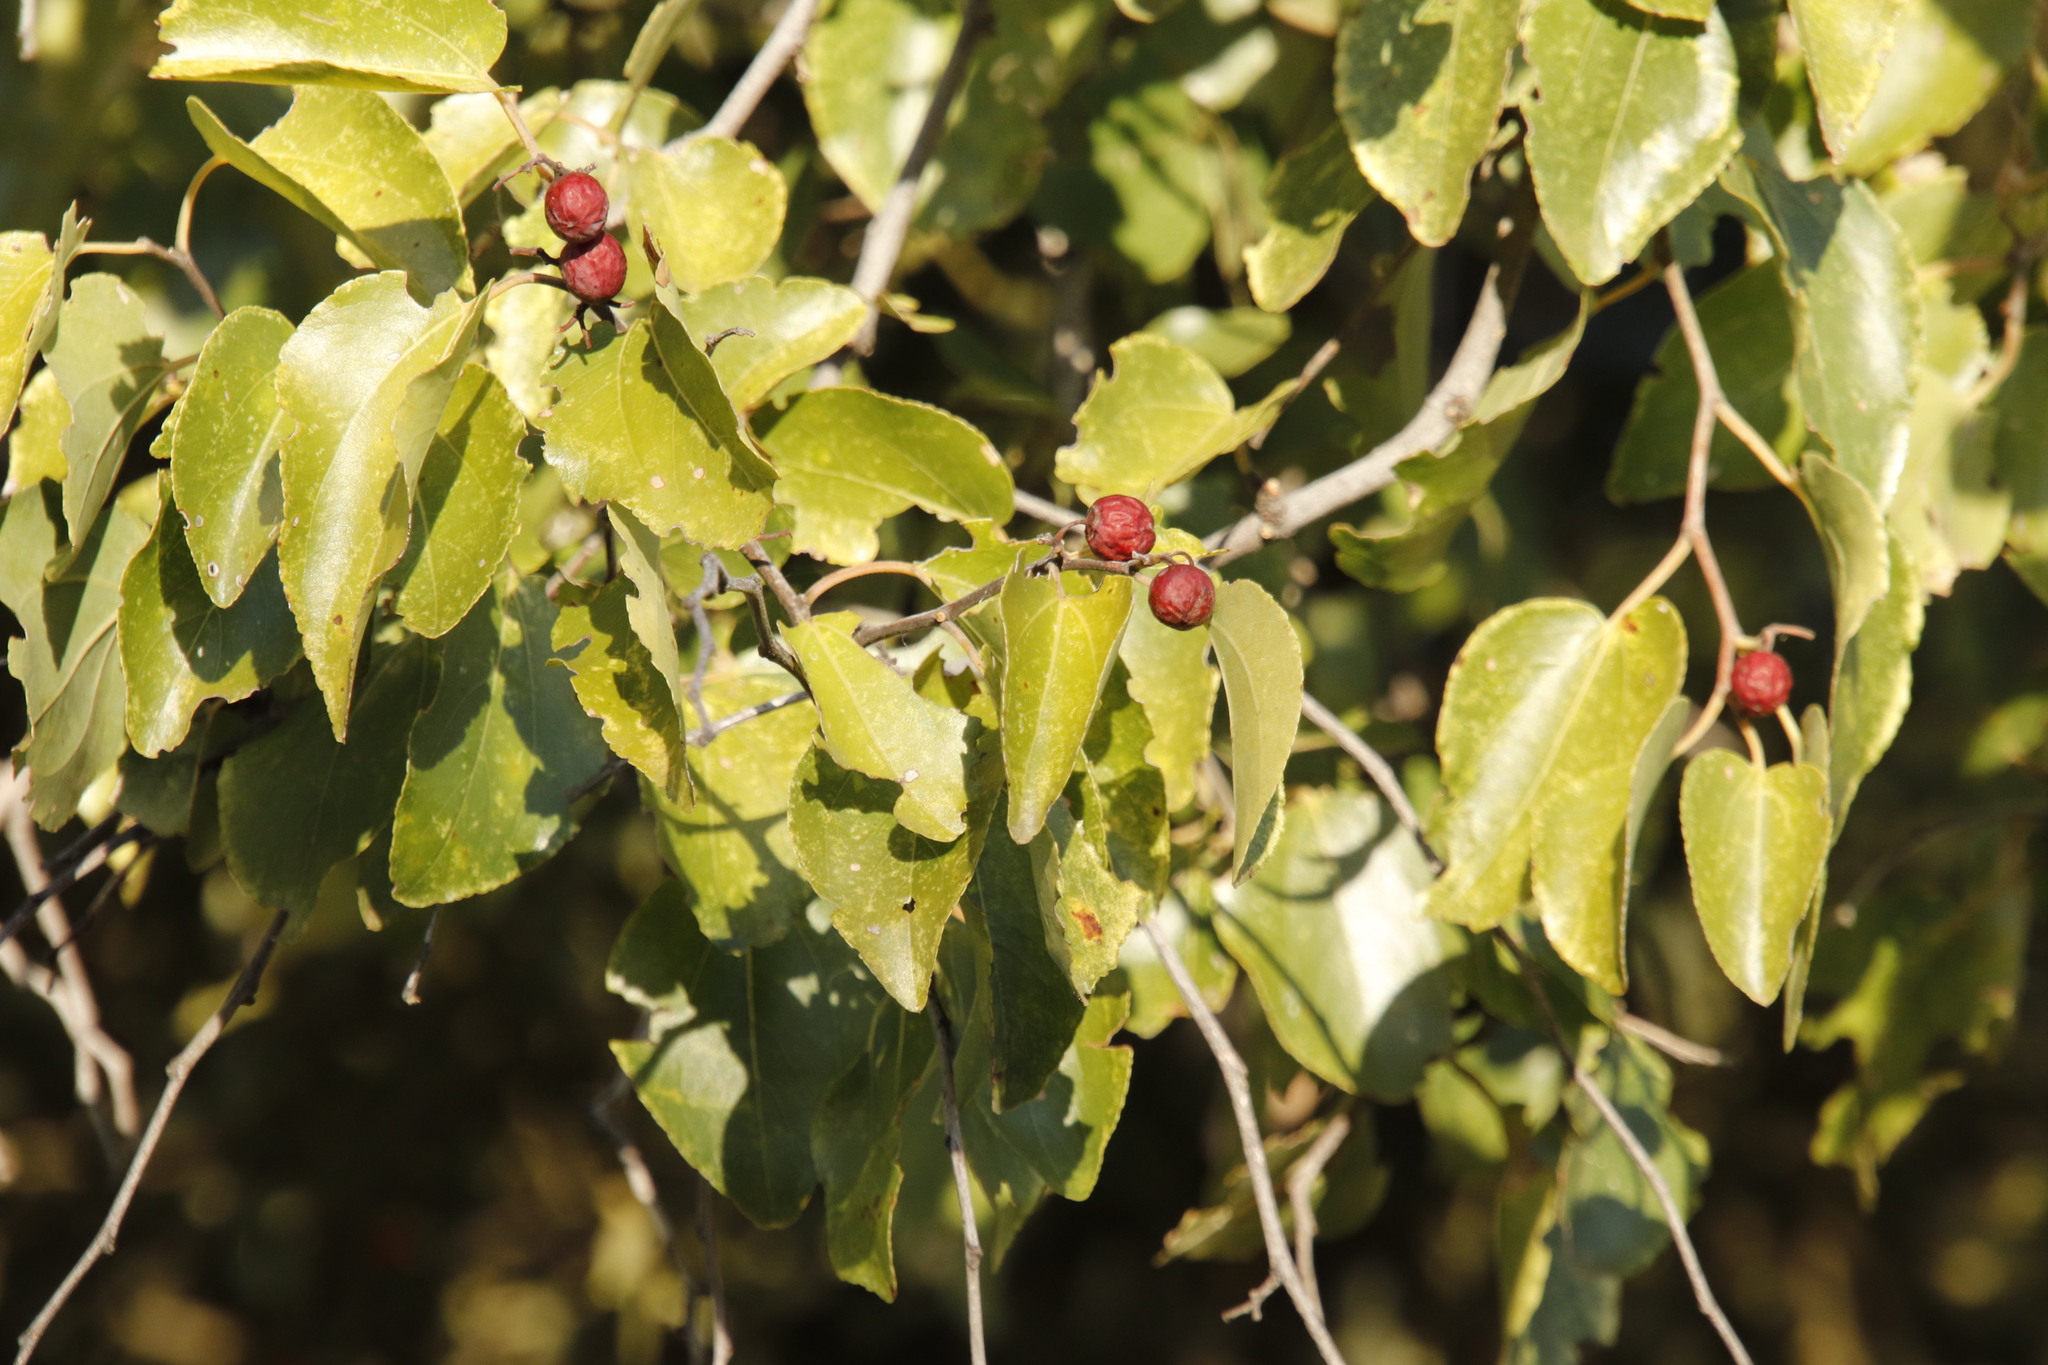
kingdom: Plantae
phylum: Tracheophyta
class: Magnoliopsida
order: Rosales
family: Rhamnaceae
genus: Ziziphus
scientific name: Ziziphus mucronata
